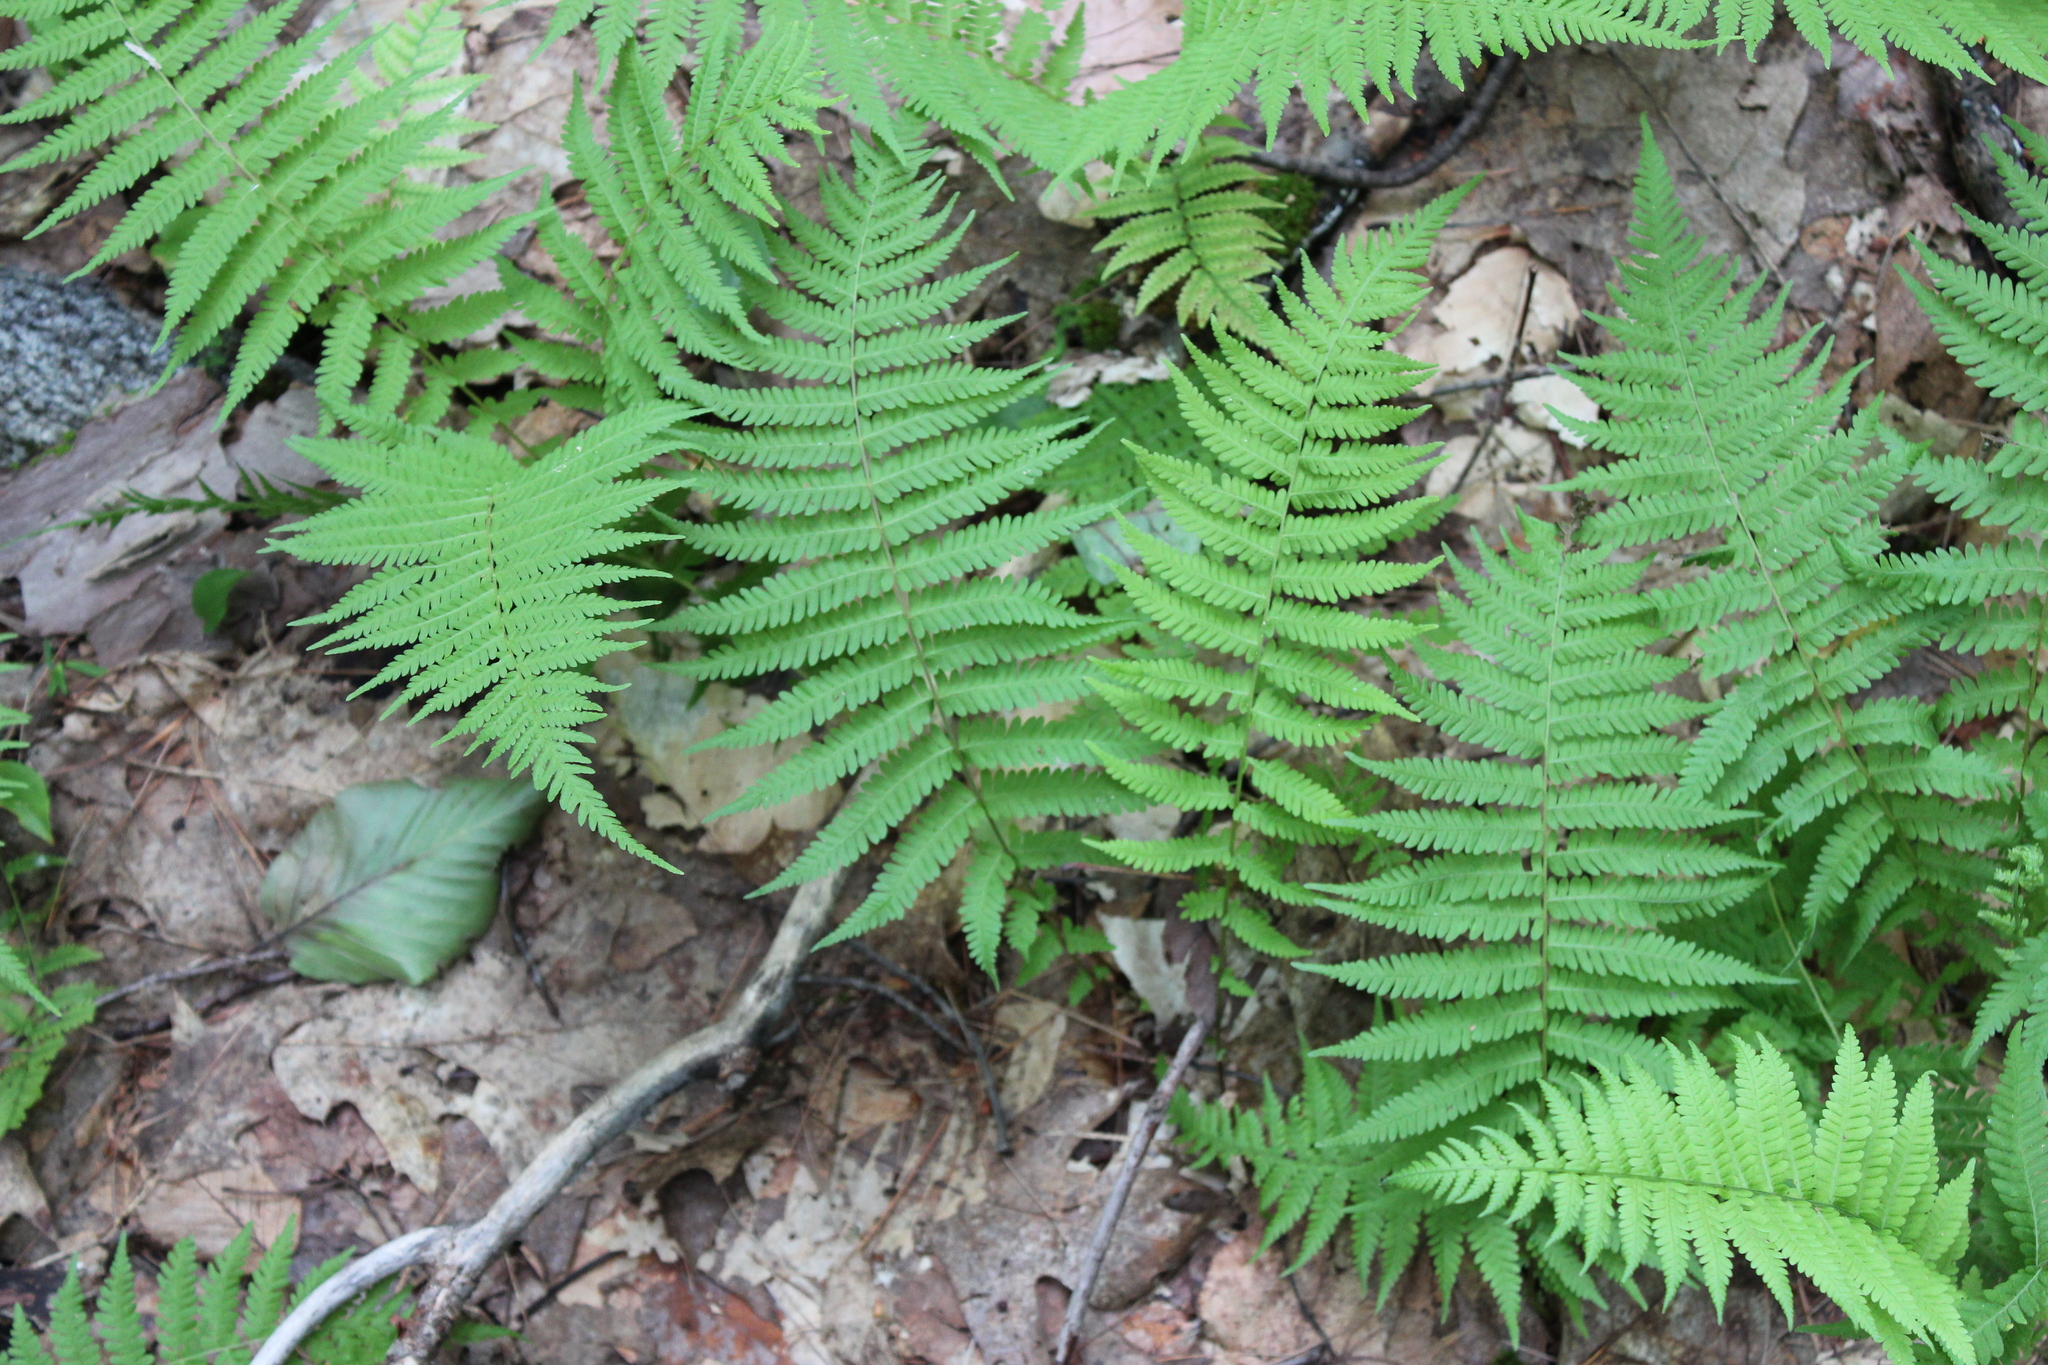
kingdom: Plantae
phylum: Tracheophyta
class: Polypodiopsida
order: Polypodiales
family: Thelypteridaceae
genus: Amauropelta
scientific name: Amauropelta noveboracensis
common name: New york fern
